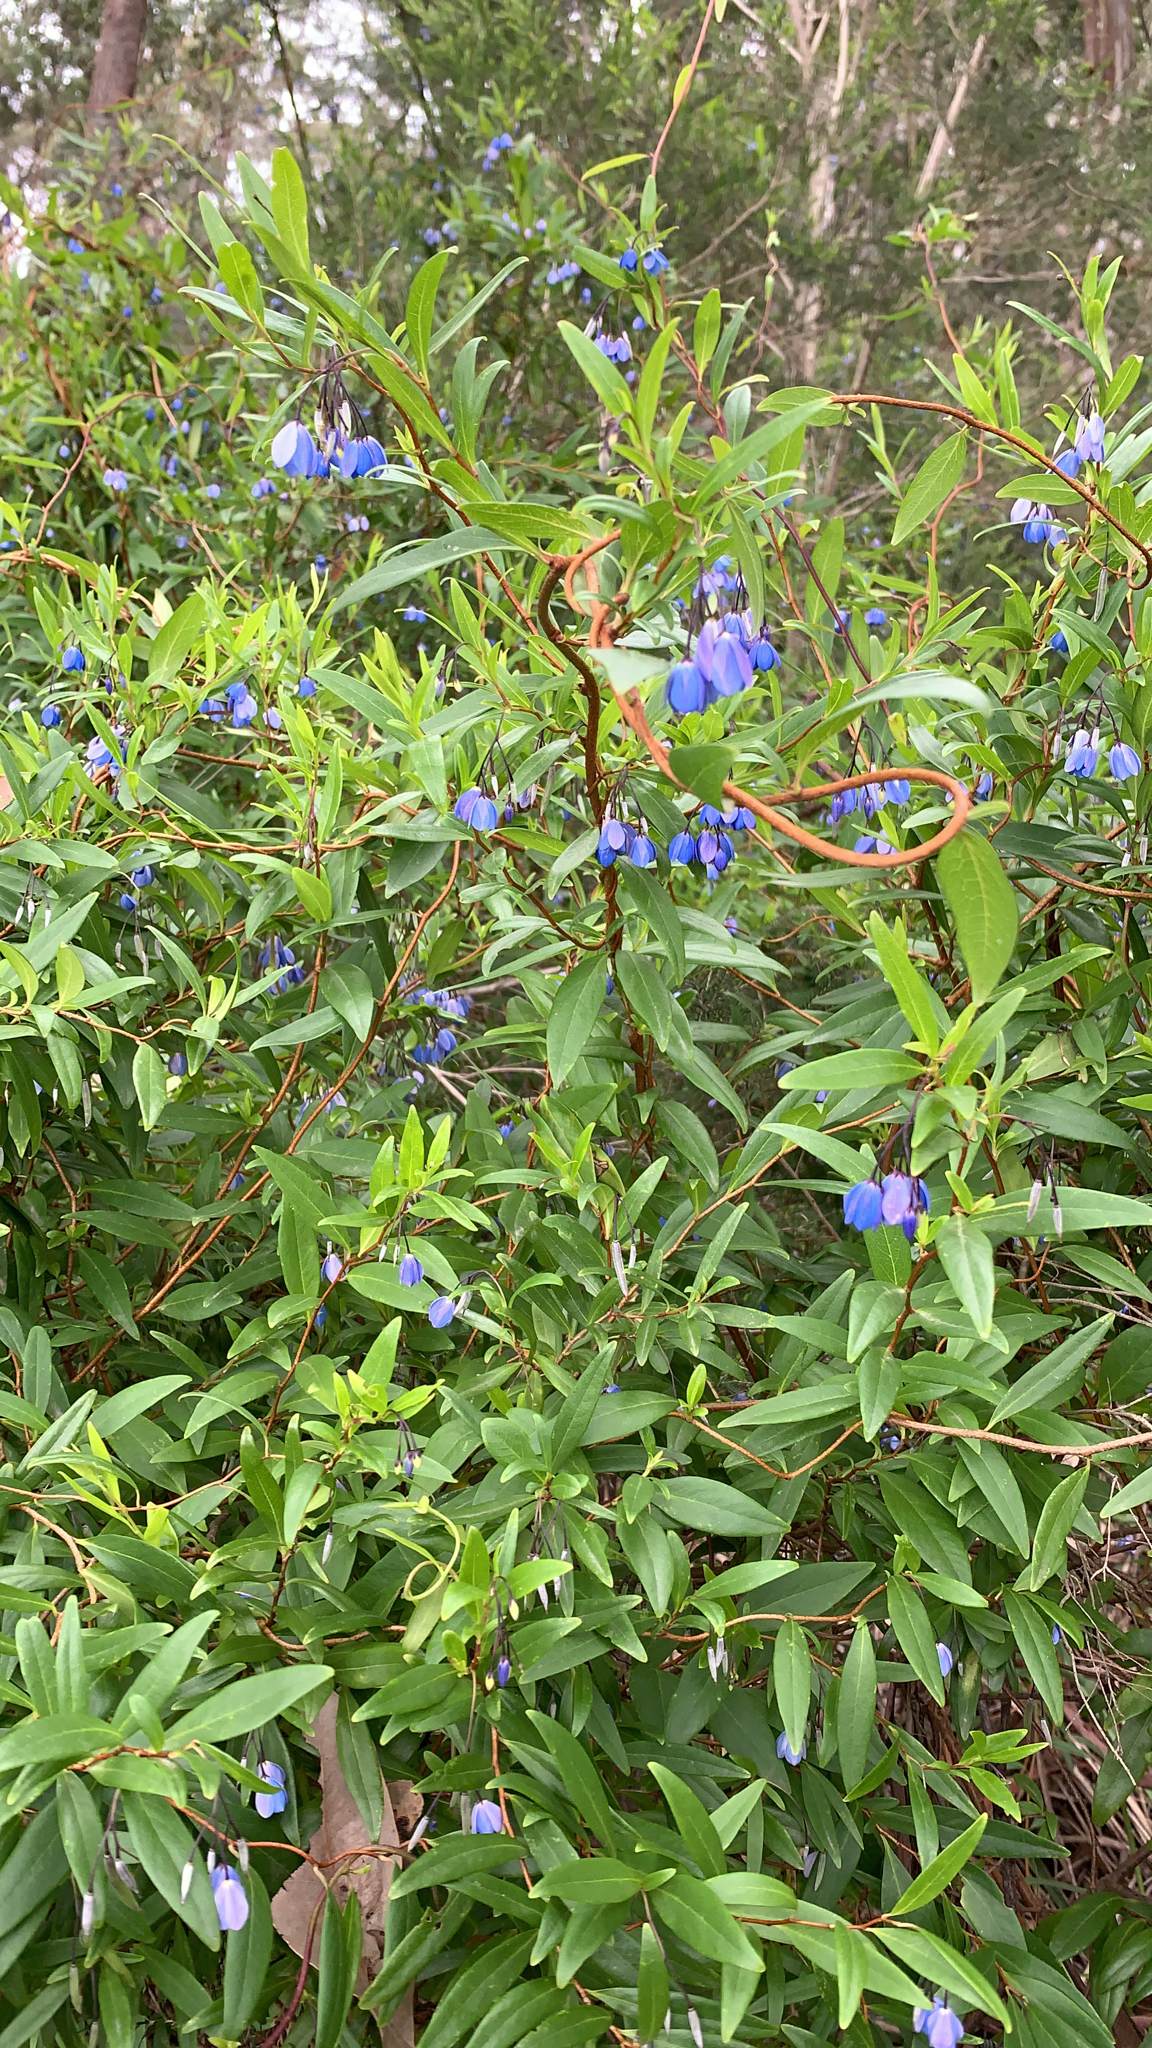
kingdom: Plantae
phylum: Tracheophyta
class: Magnoliopsida
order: Apiales
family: Pittosporaceae
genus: Billardiera
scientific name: Billardiera fusiformis
